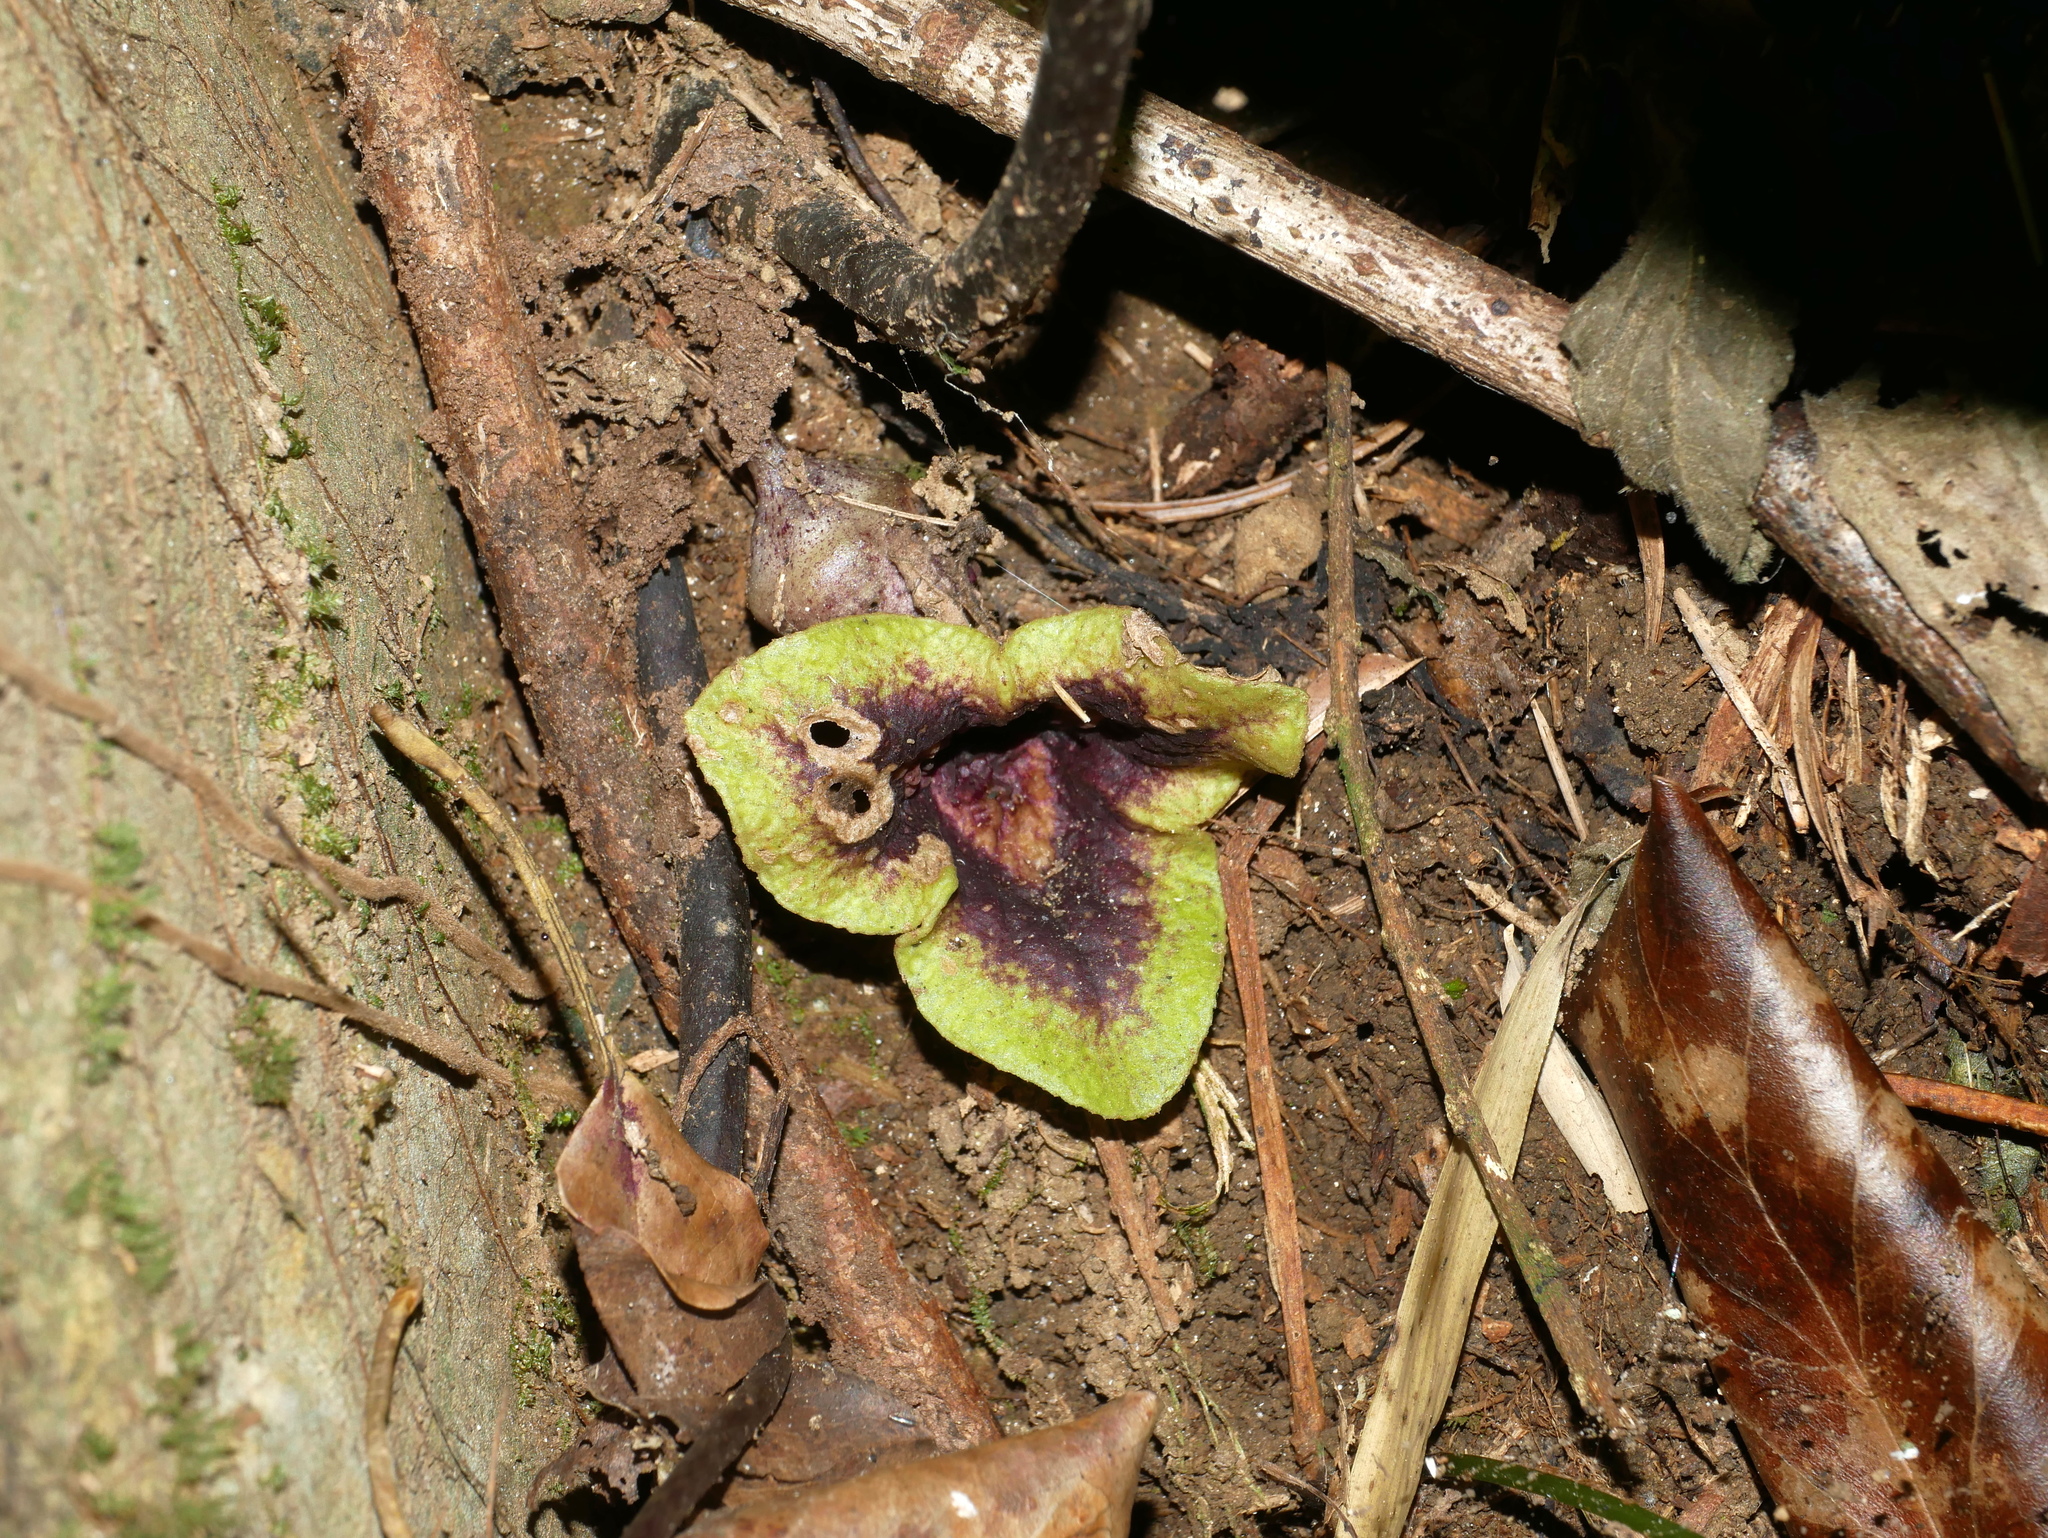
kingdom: Plantae
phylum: Tracheophyta
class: Magnoliopsida
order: Piperales
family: Aristolochiaceae
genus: Asarum
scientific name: Asarum hypogynum
